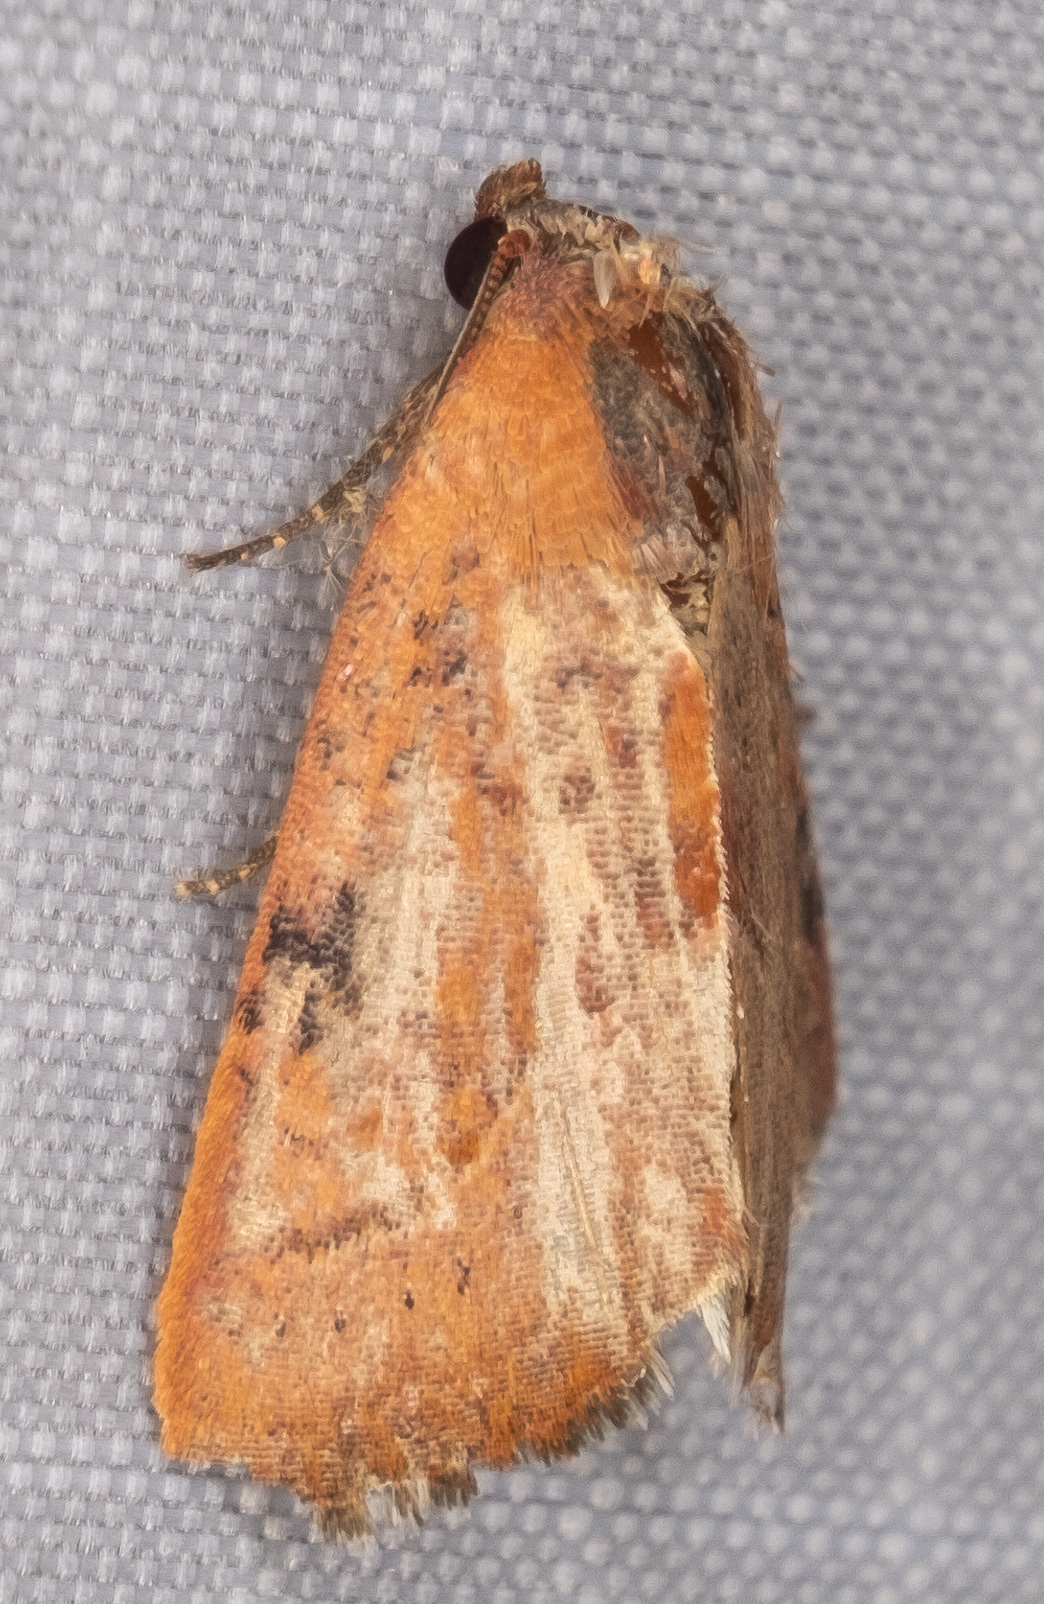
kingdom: Animalia
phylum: Arthropoda
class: Insecta
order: Lepidoptera
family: Noctuidae
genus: Galgula
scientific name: Galgula partita
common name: Wedgeling
